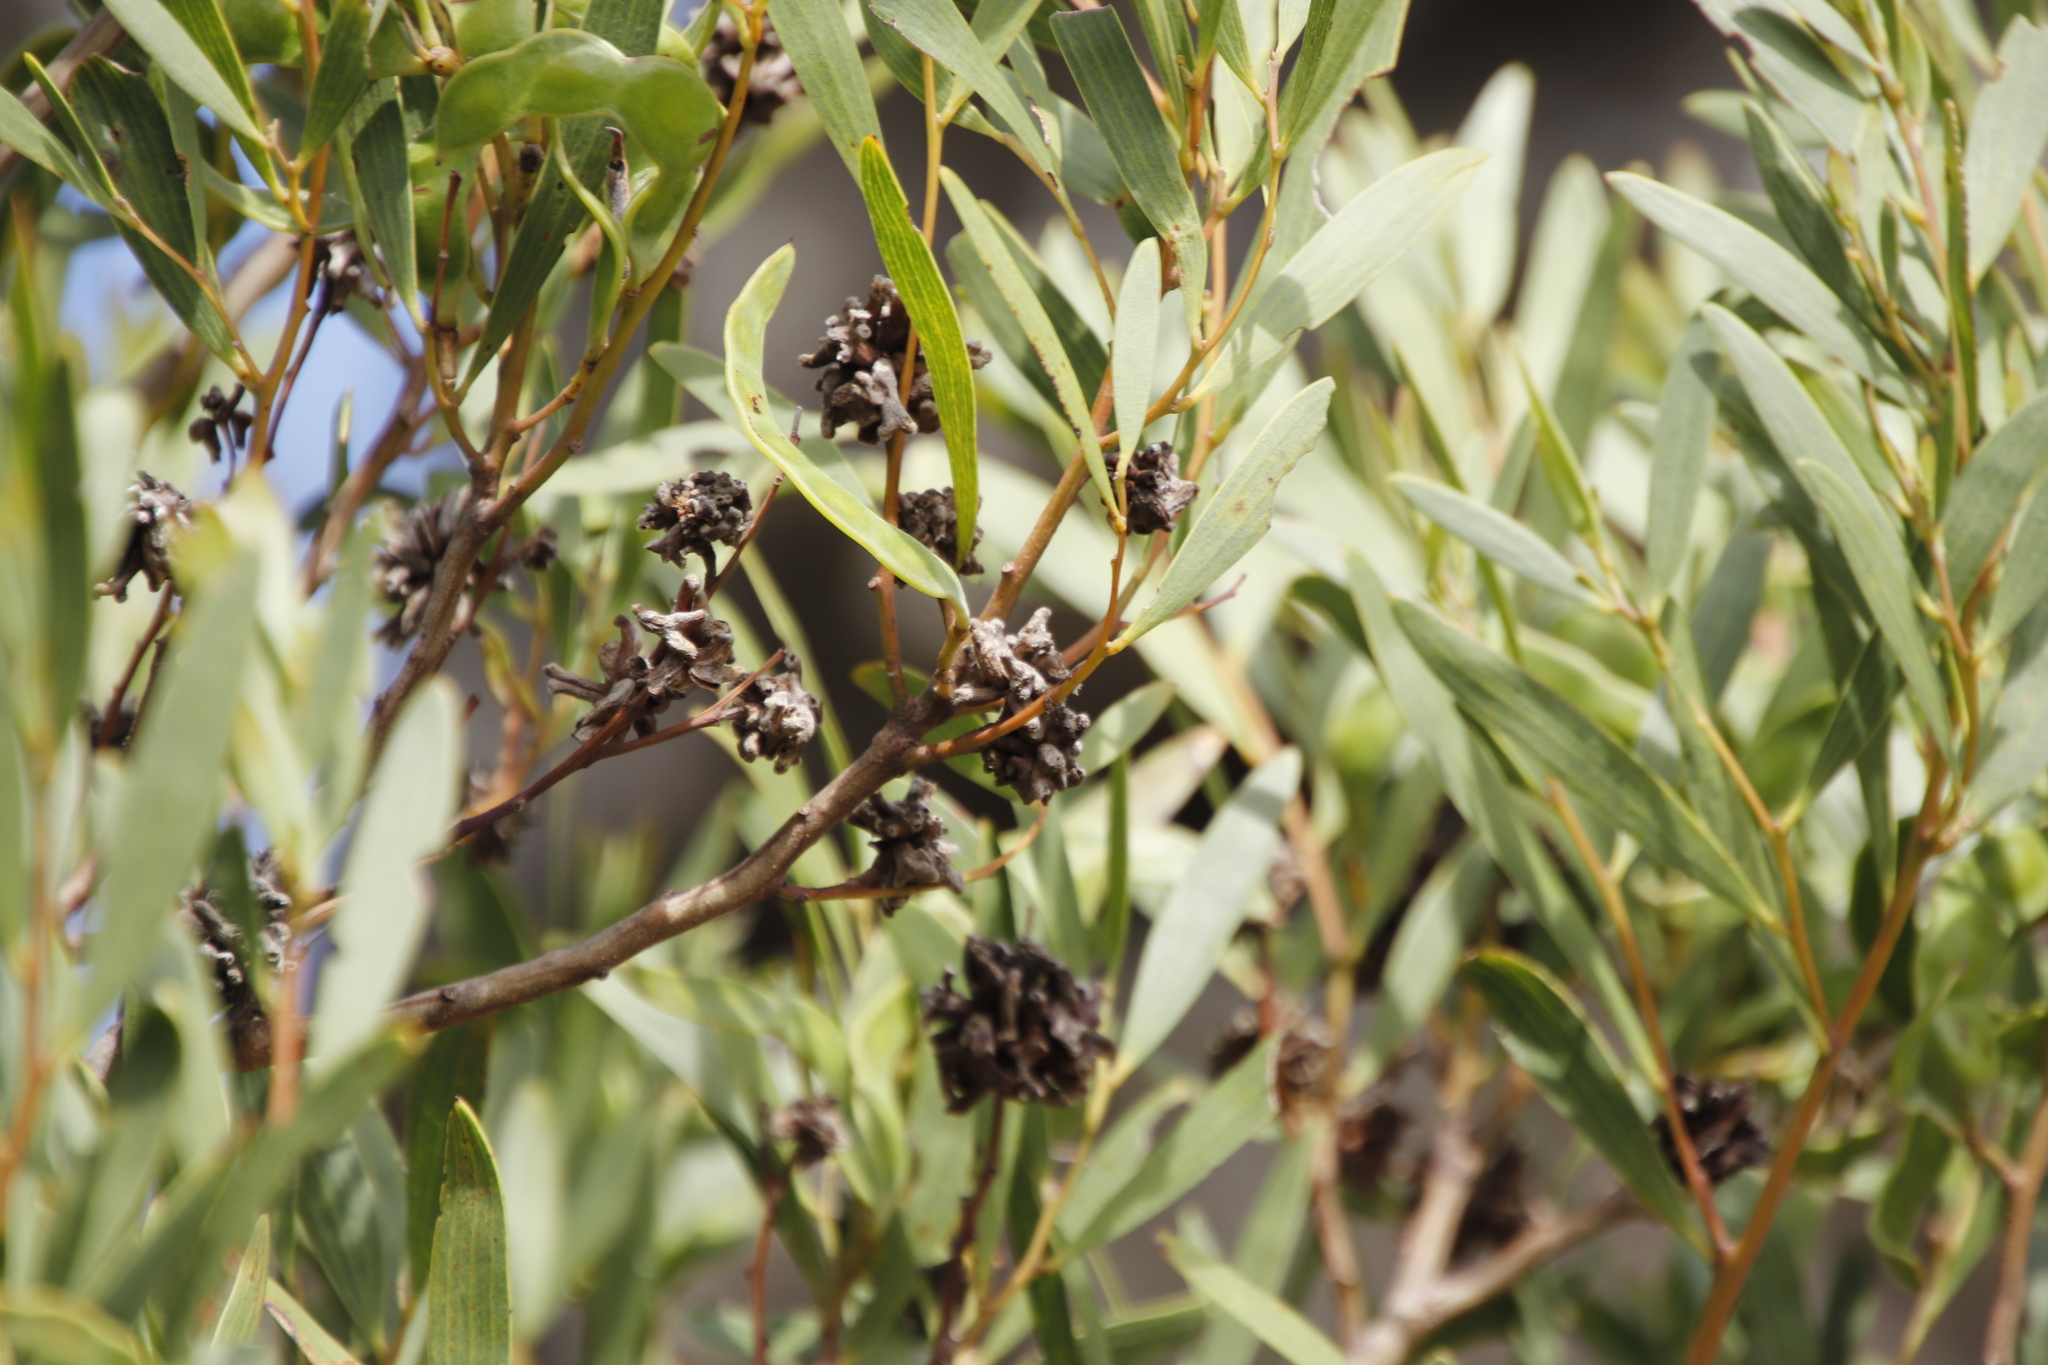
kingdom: Animalia
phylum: Arthropoda
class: Insecta
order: Diptera
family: Cecidomyiidae
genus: Dasineura
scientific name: Dasineura dielsi
